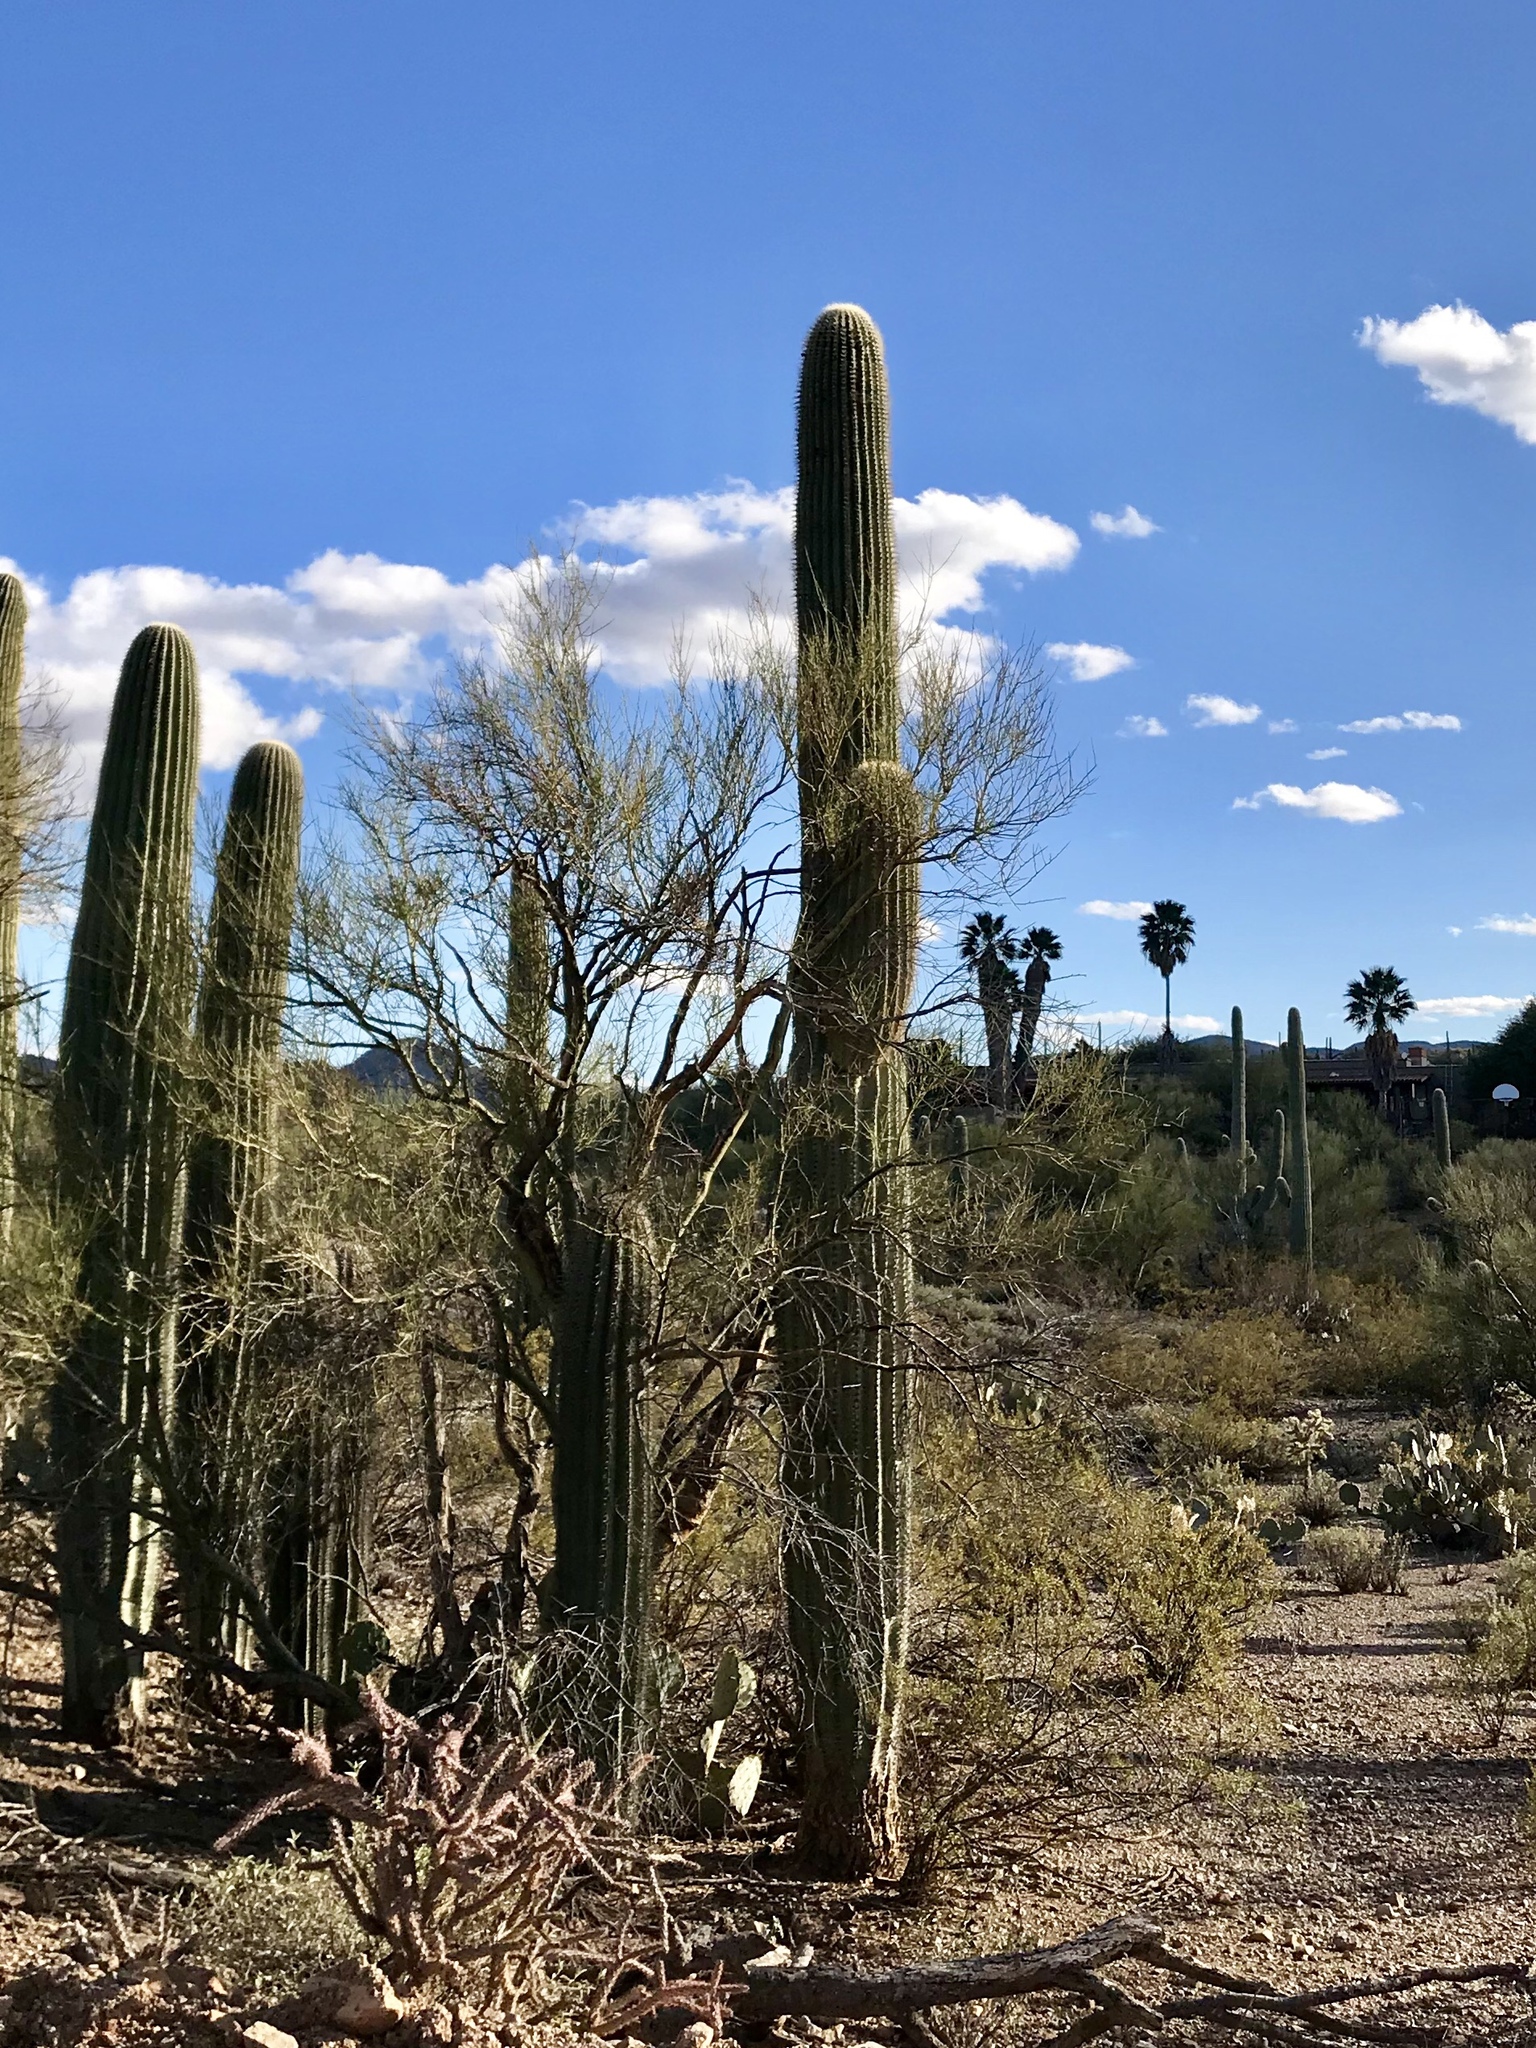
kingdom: Plantae
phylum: Tracheophyta
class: Magnoliopsida
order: Caryophyllales
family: Cactaceae
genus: Carnegiea
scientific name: Carnegiea gigantea
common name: Saguaro
